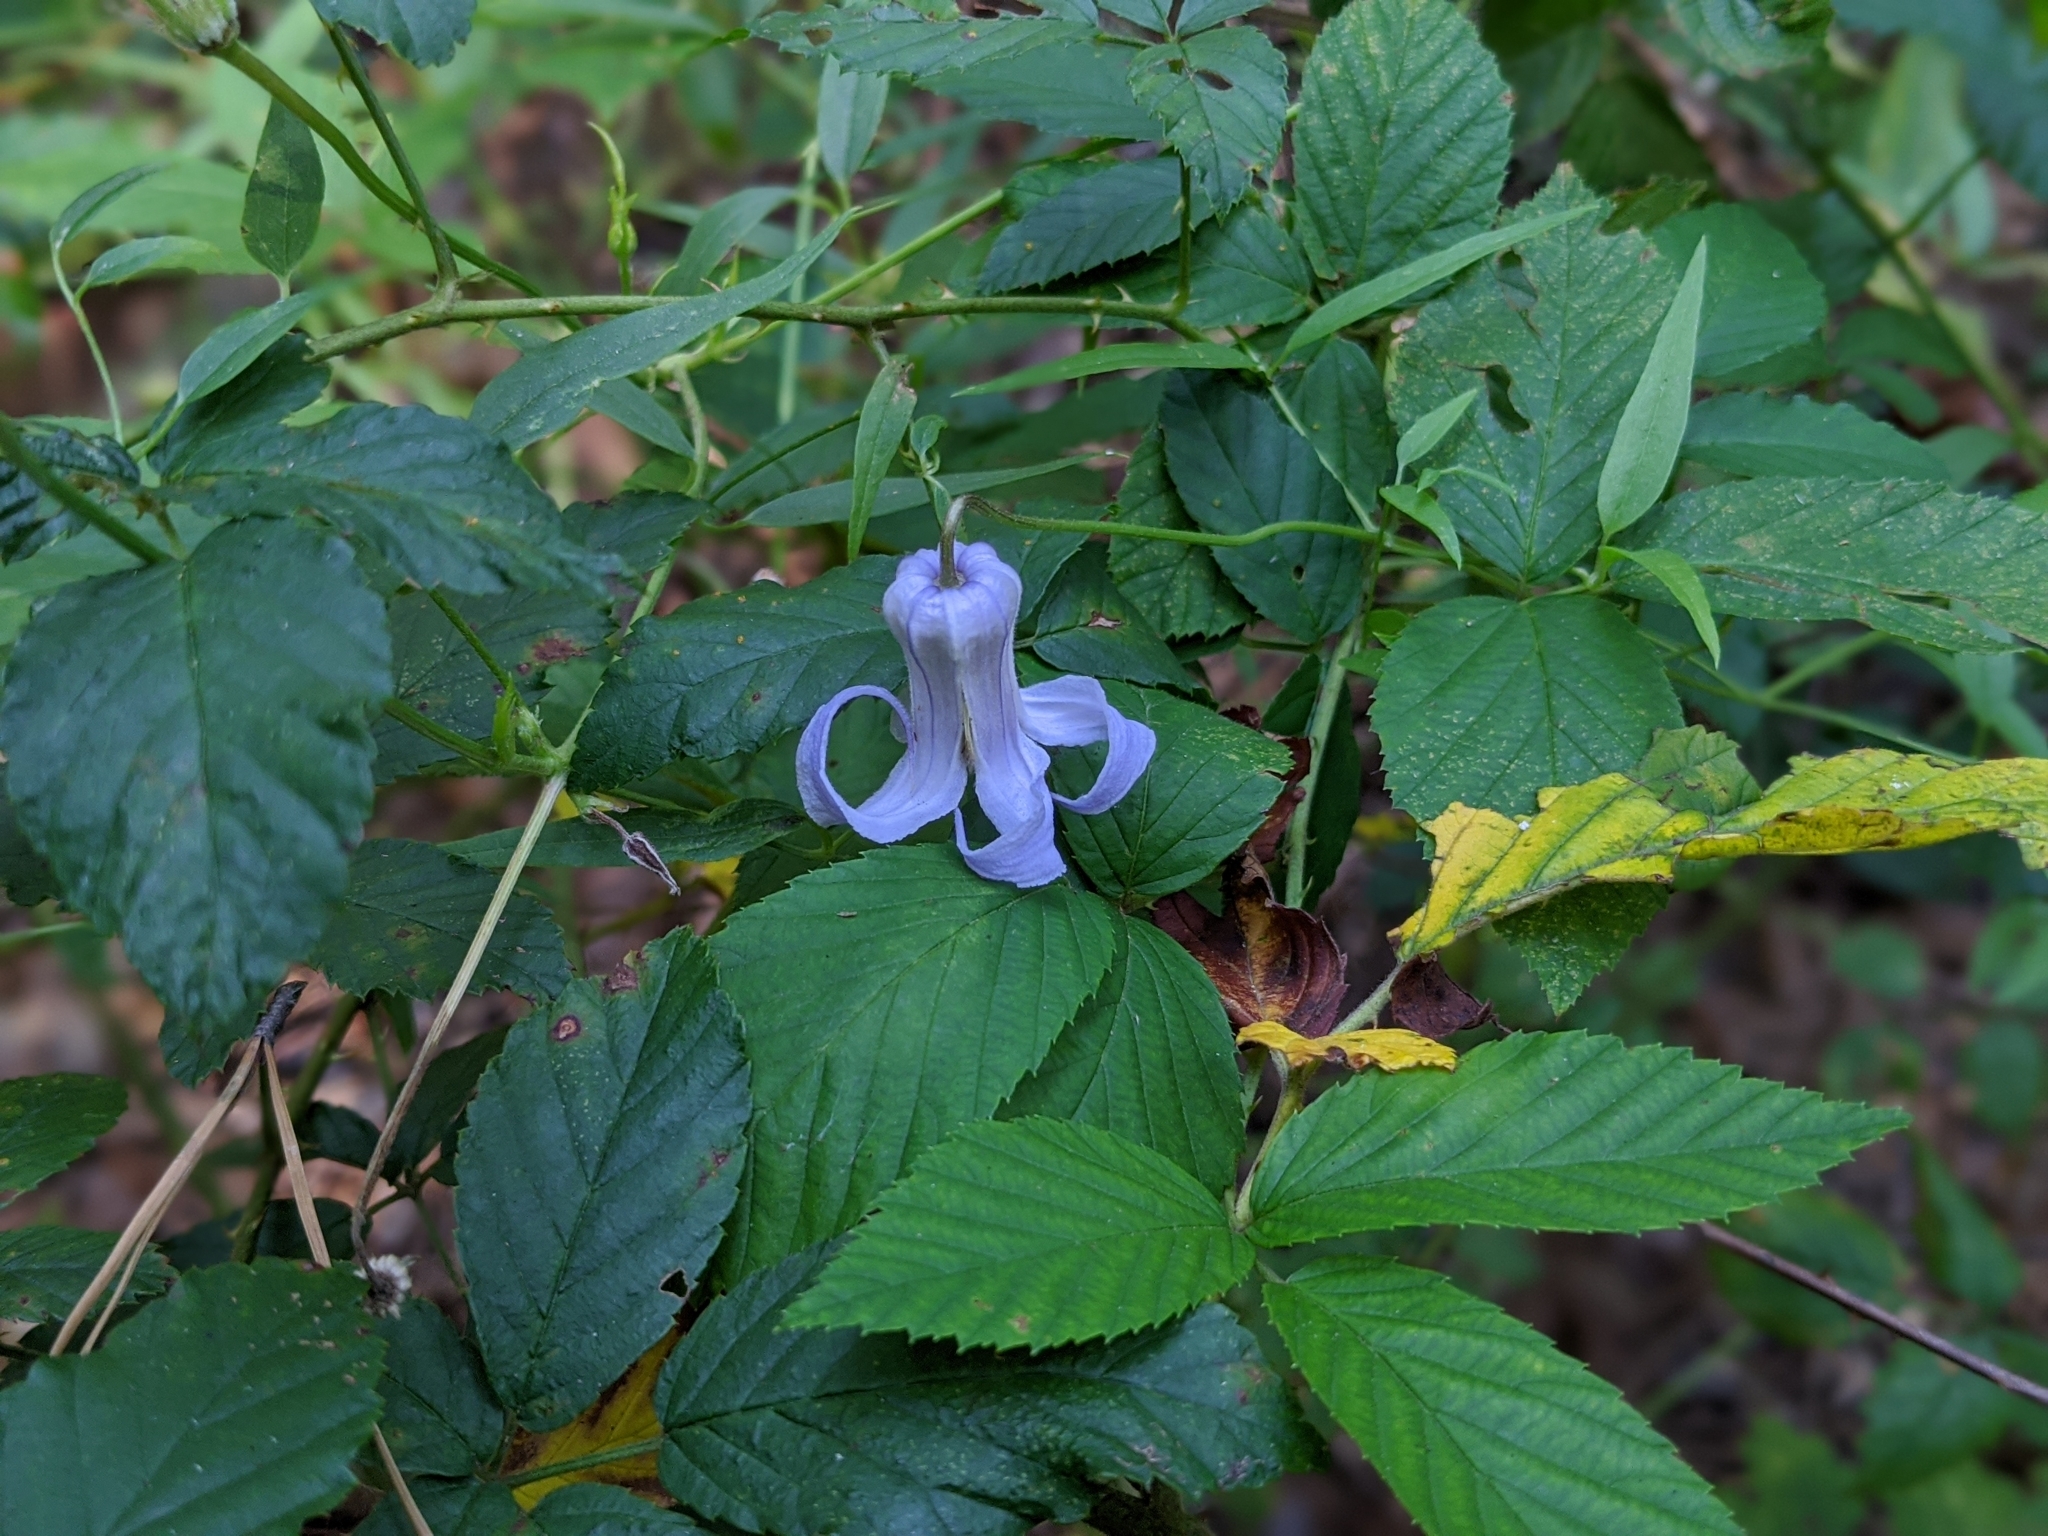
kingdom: Plantae
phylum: Tracheophyta
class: Magnoliopsida
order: Ranunculales
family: Ranunculaceae
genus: Clematis
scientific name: Clematis crispa
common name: Curly clematis
